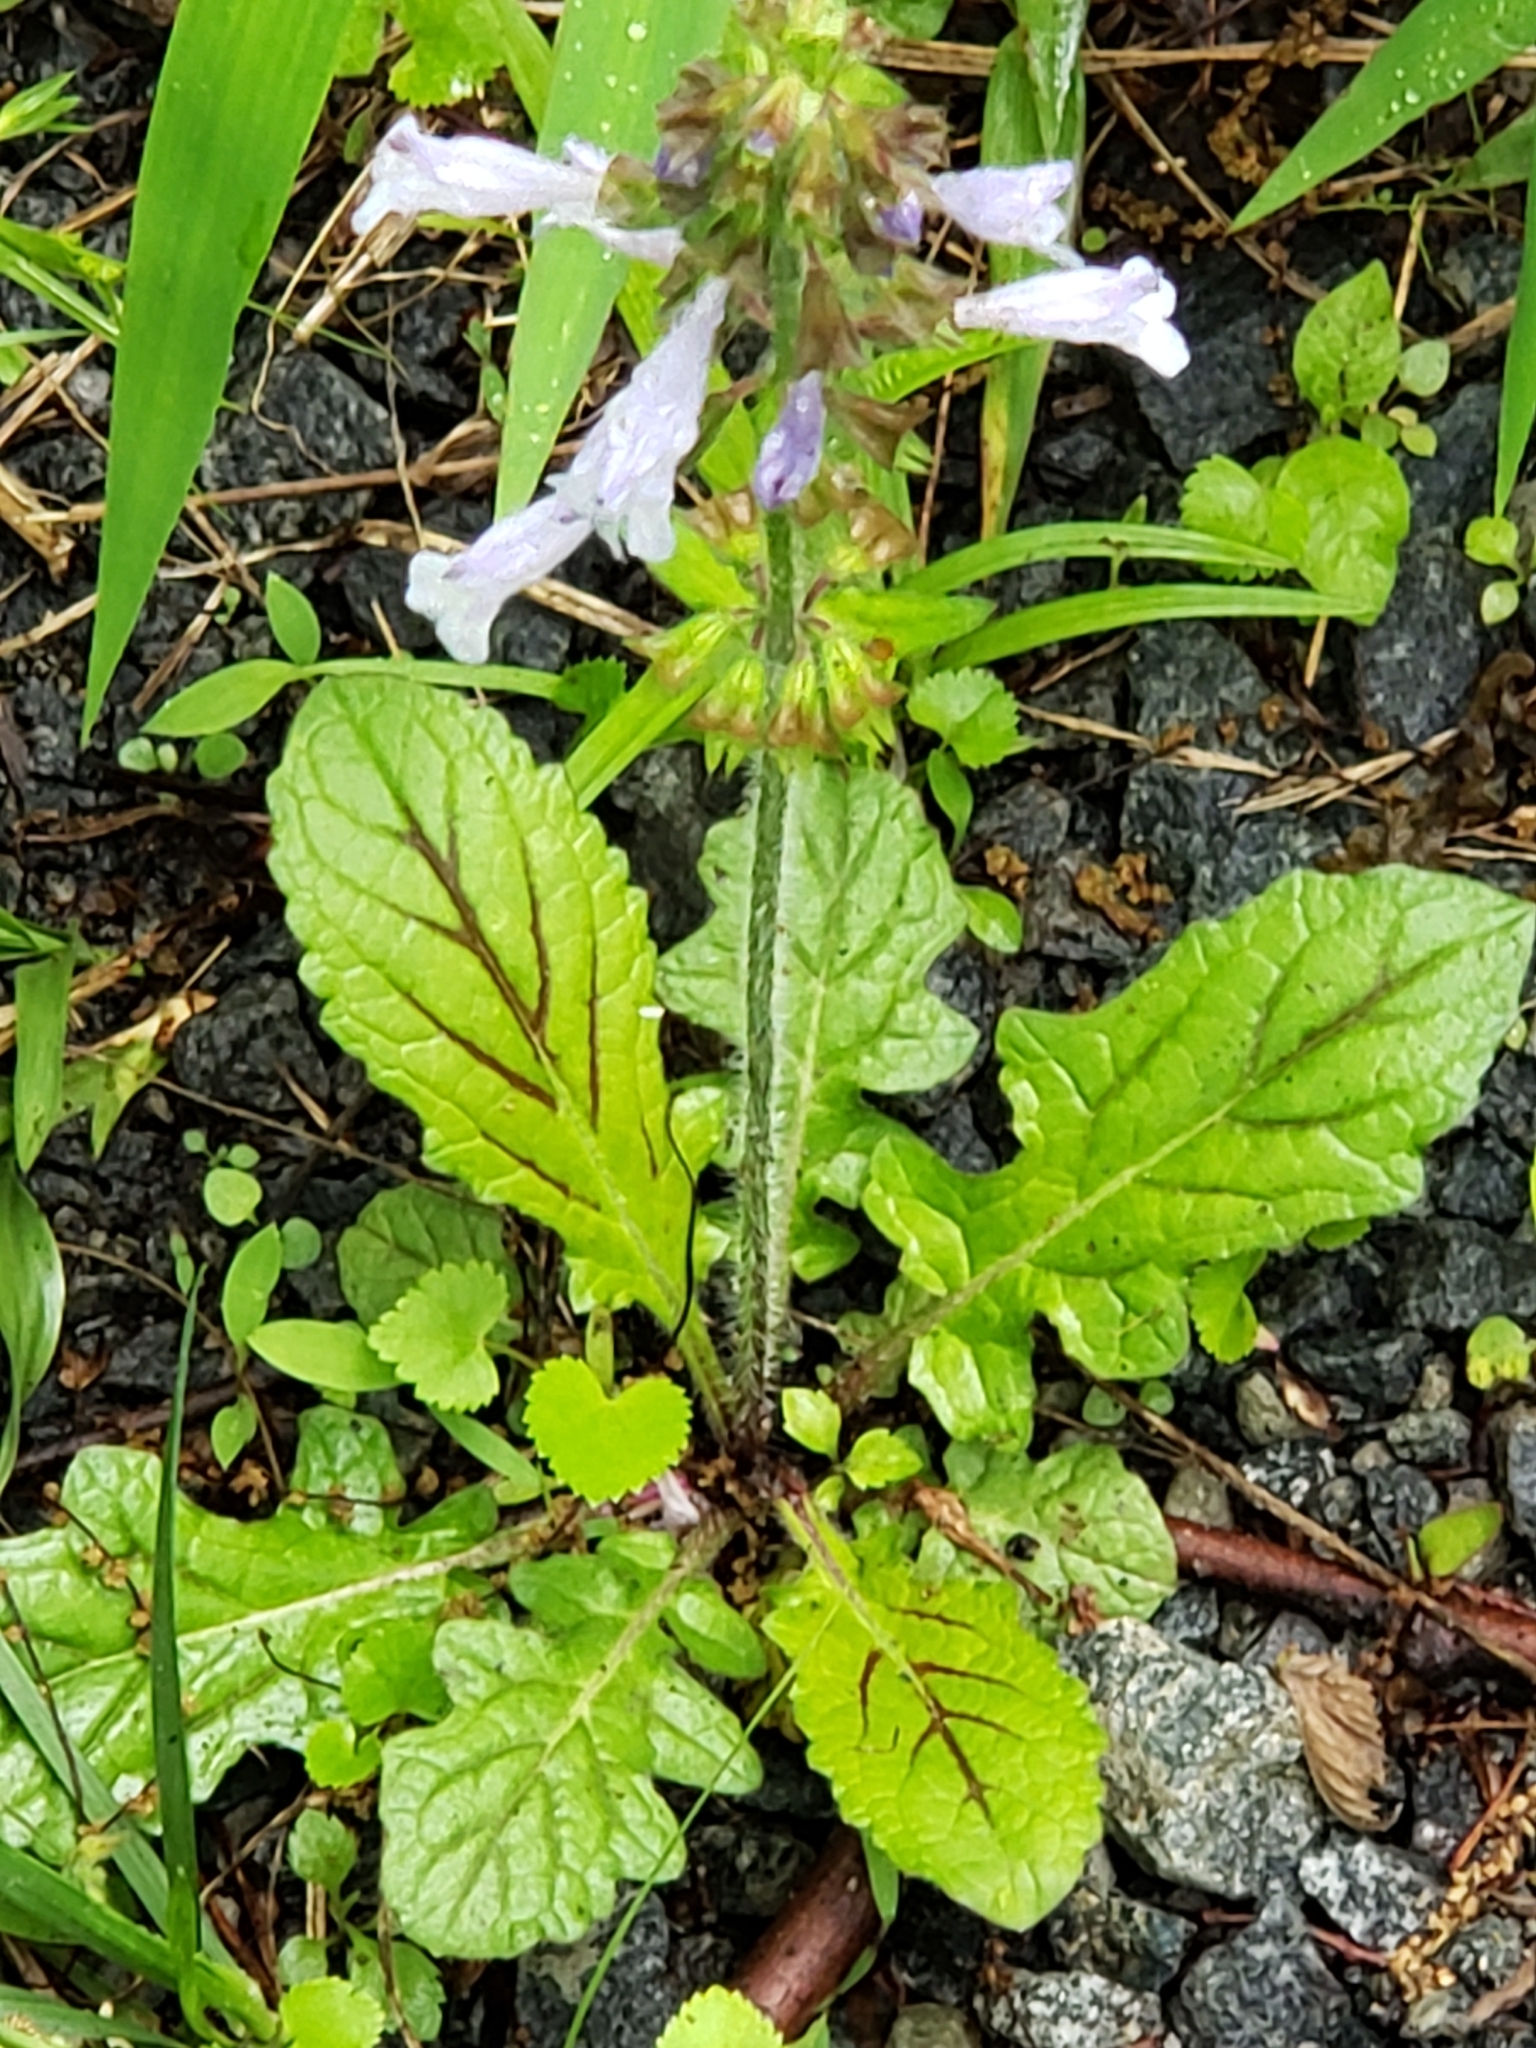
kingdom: Plantae
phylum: Tracheophyta
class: Magnoliopsida
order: Lamiales
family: Lamiaceae
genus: Salvia
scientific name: Salvia lyrata
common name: Cancerweed
